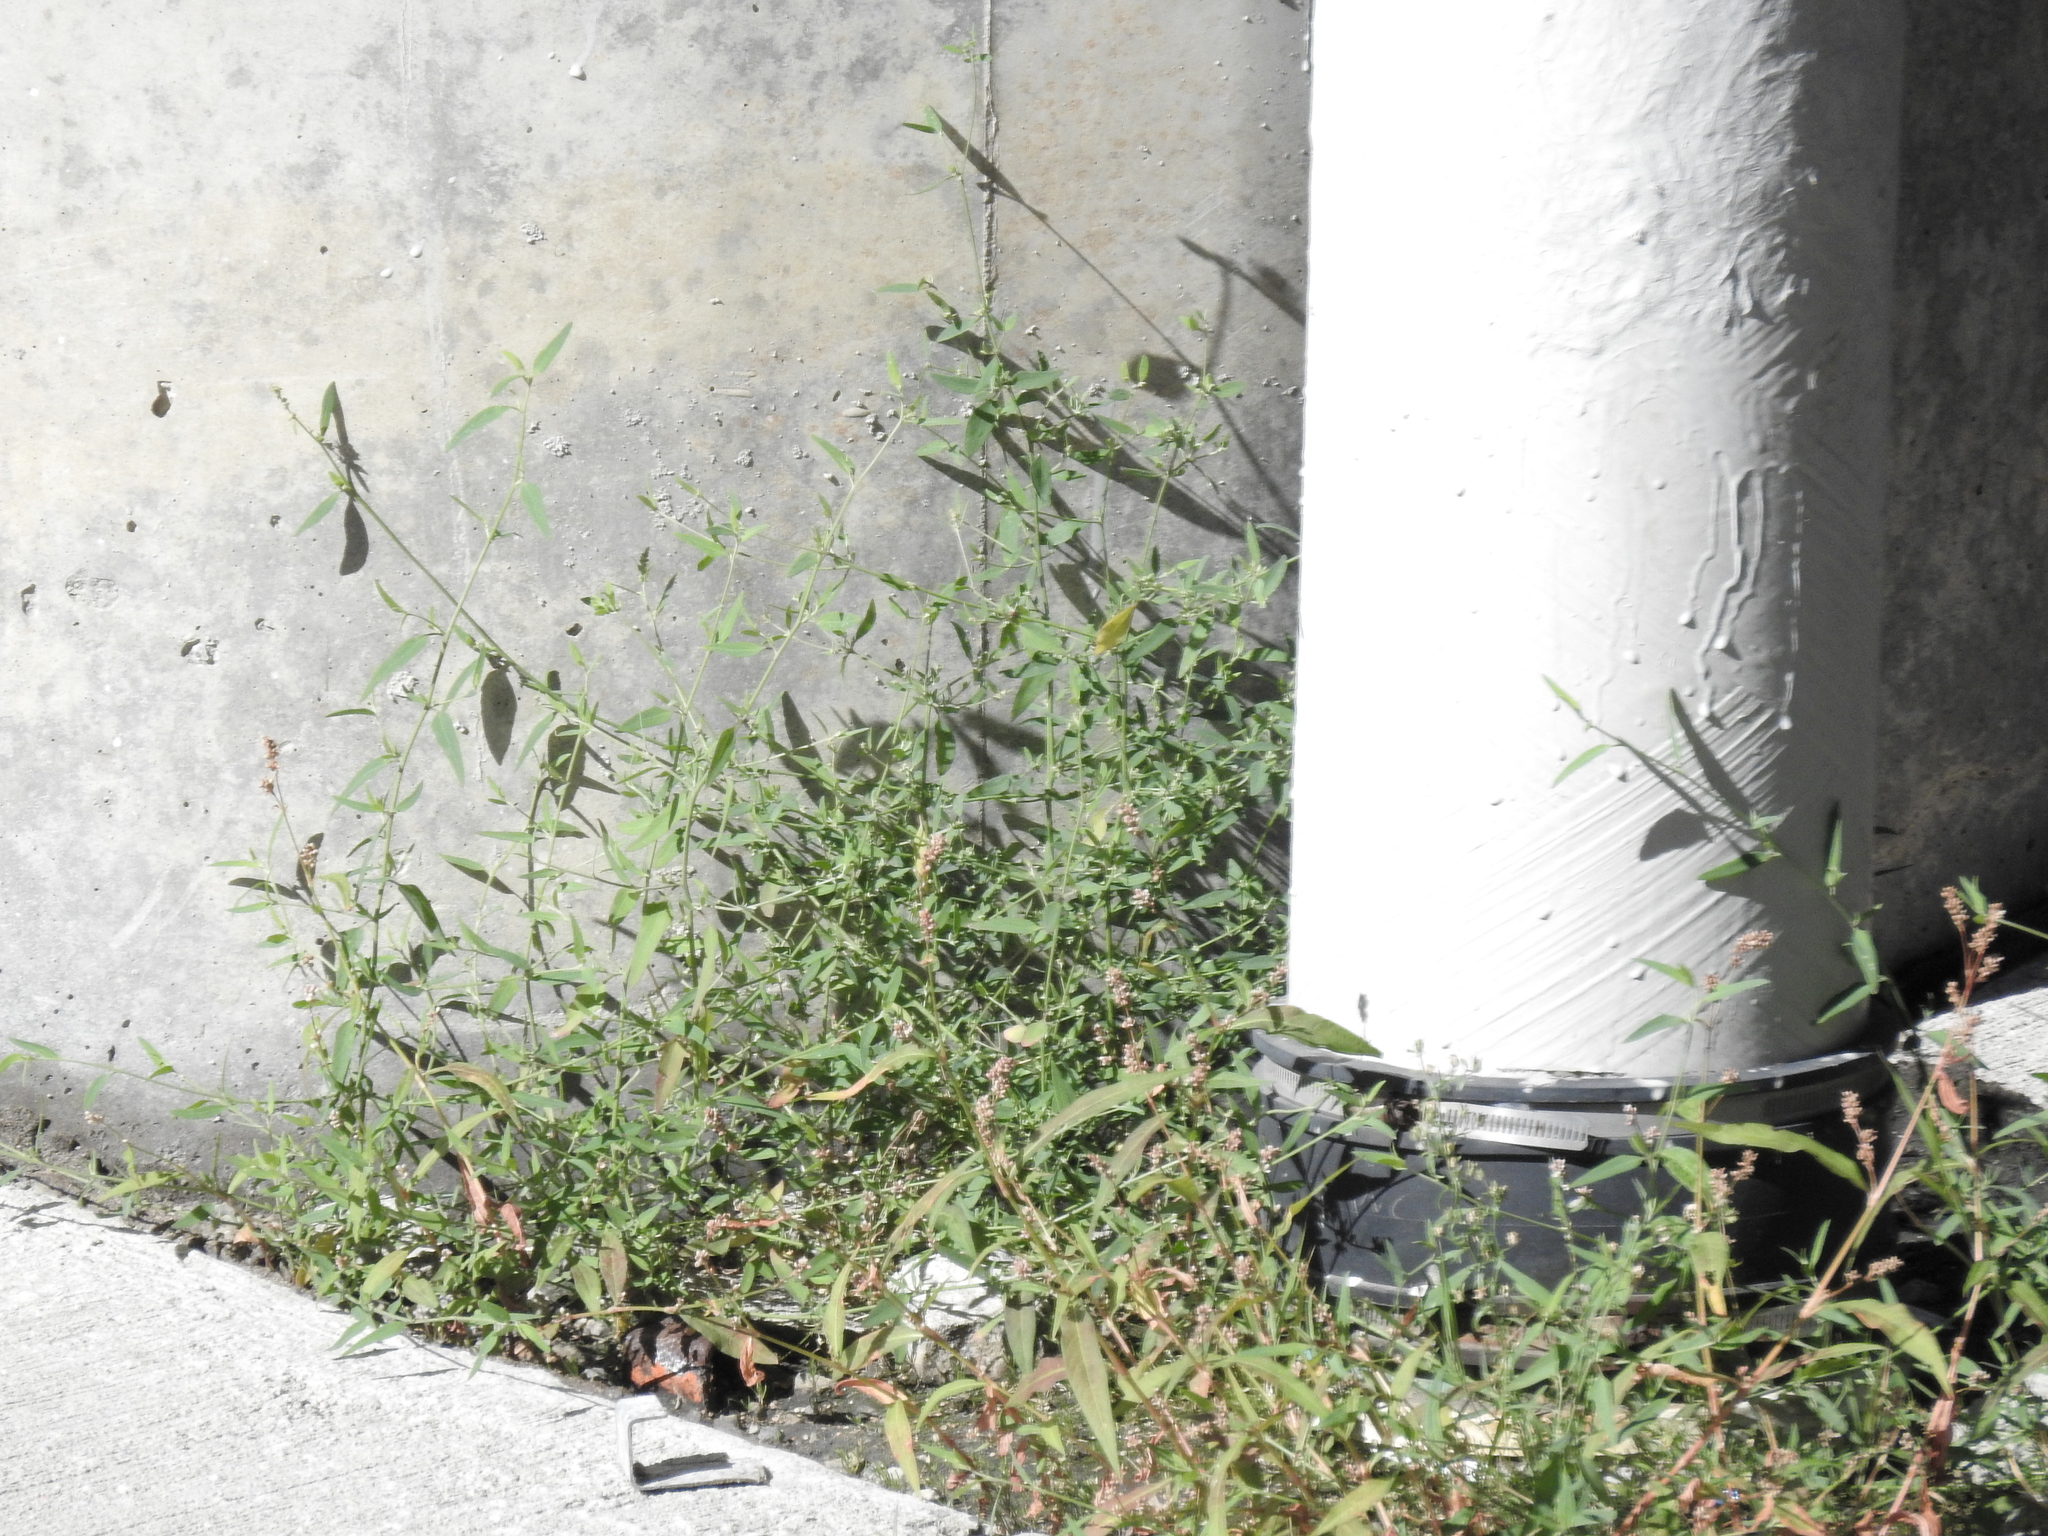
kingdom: Plantae
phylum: Tracheophyta
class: Magnoliopsida
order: Caryophyllales
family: Amaranthaceae
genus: Atriplex
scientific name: Atriplex patula
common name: Common orache
